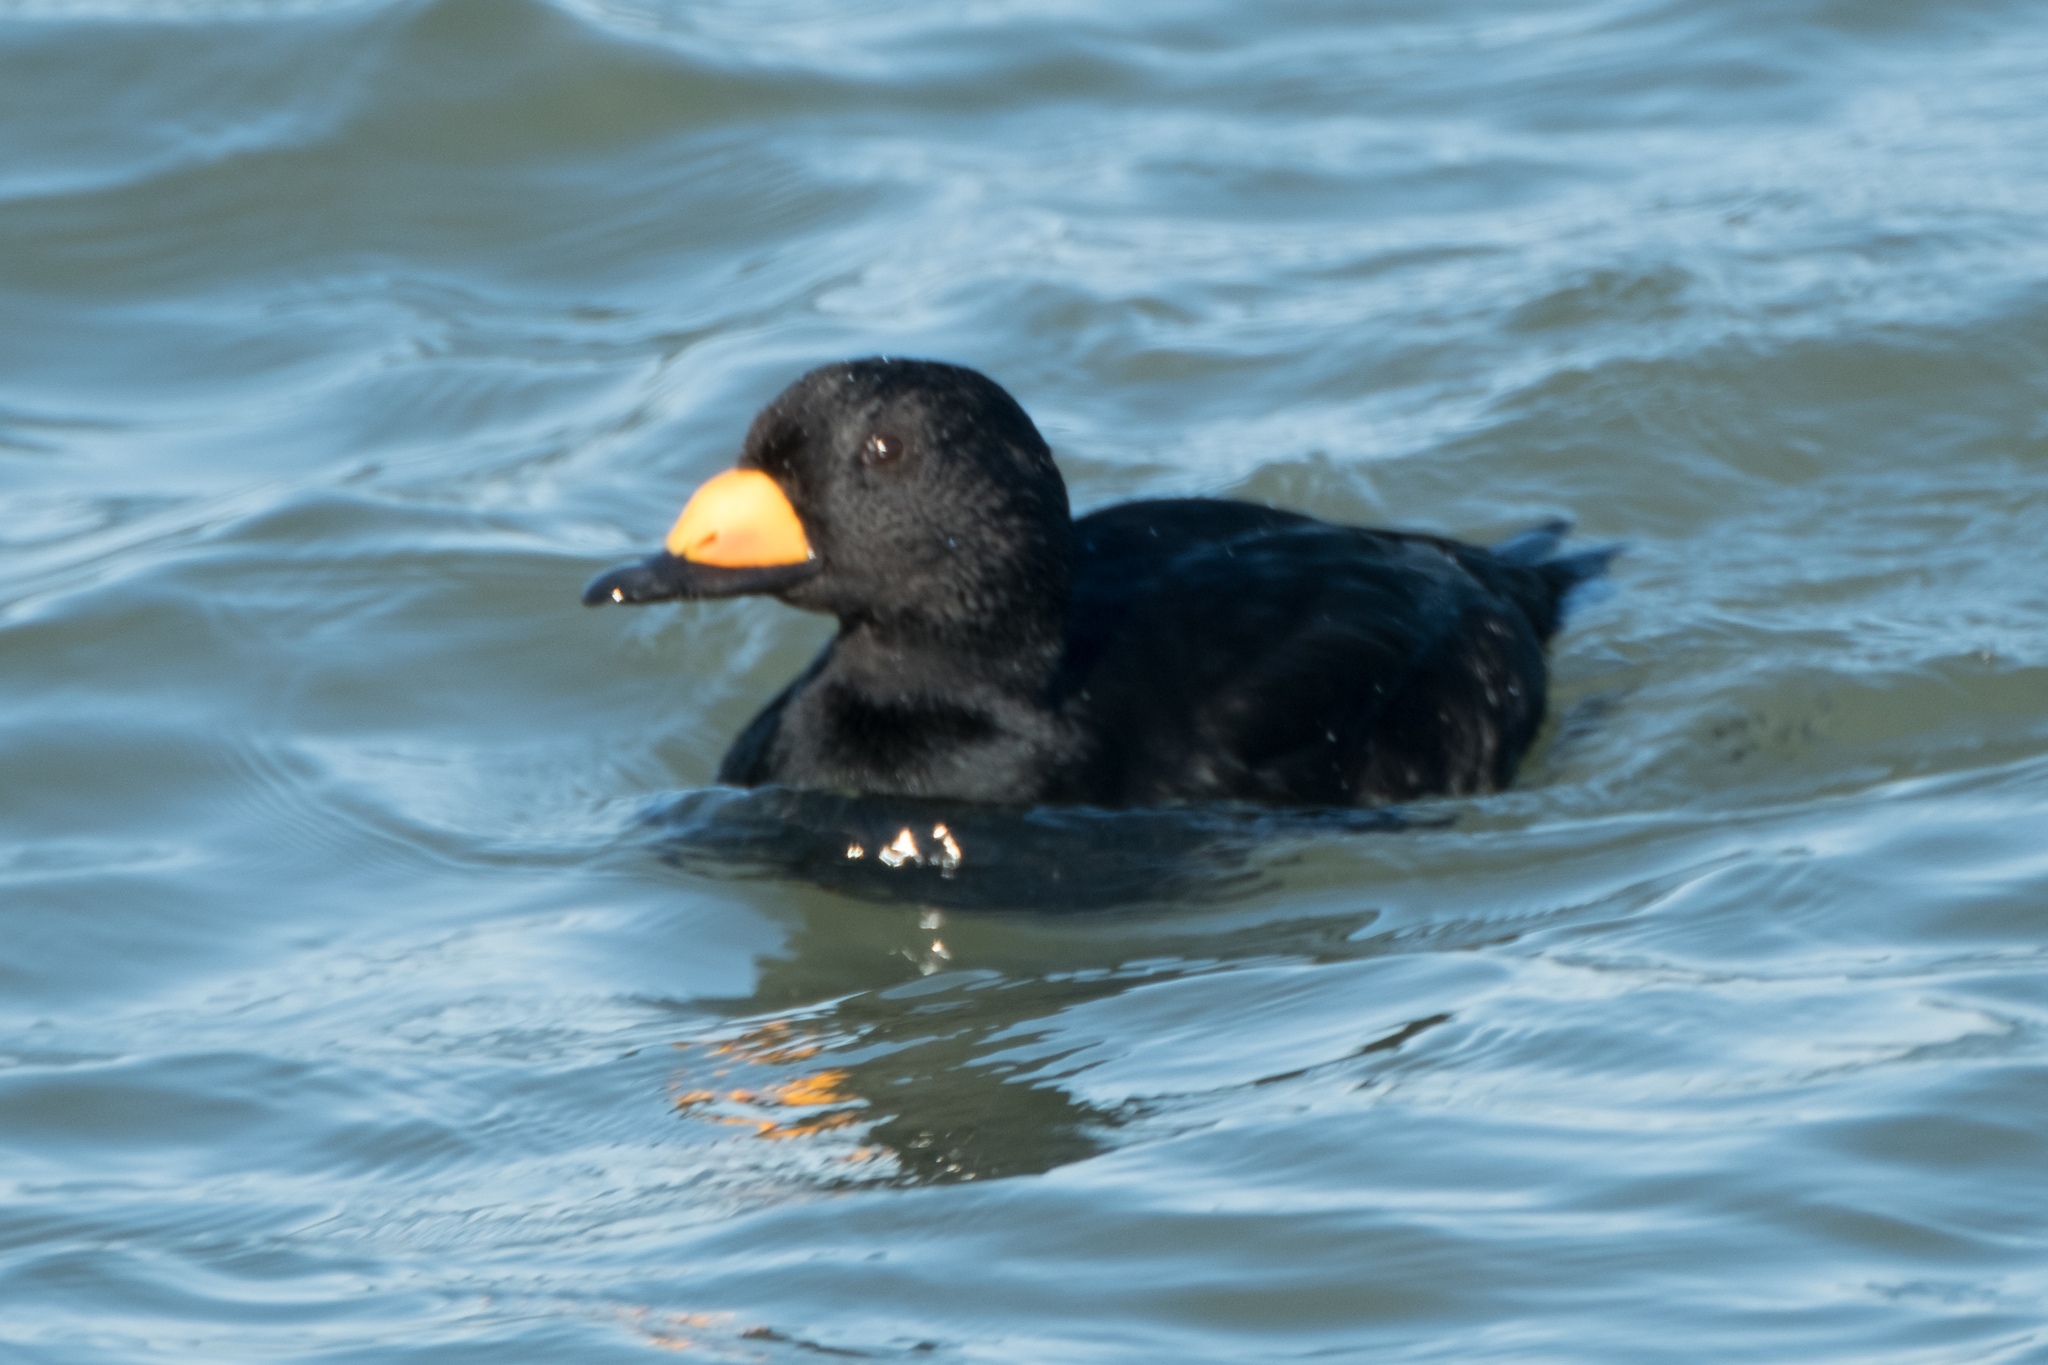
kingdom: Animalia
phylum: Chordata
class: Aves
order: Anseriformes
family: Anatidae
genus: Melanitta
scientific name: Melanitta americana
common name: Black scoter
